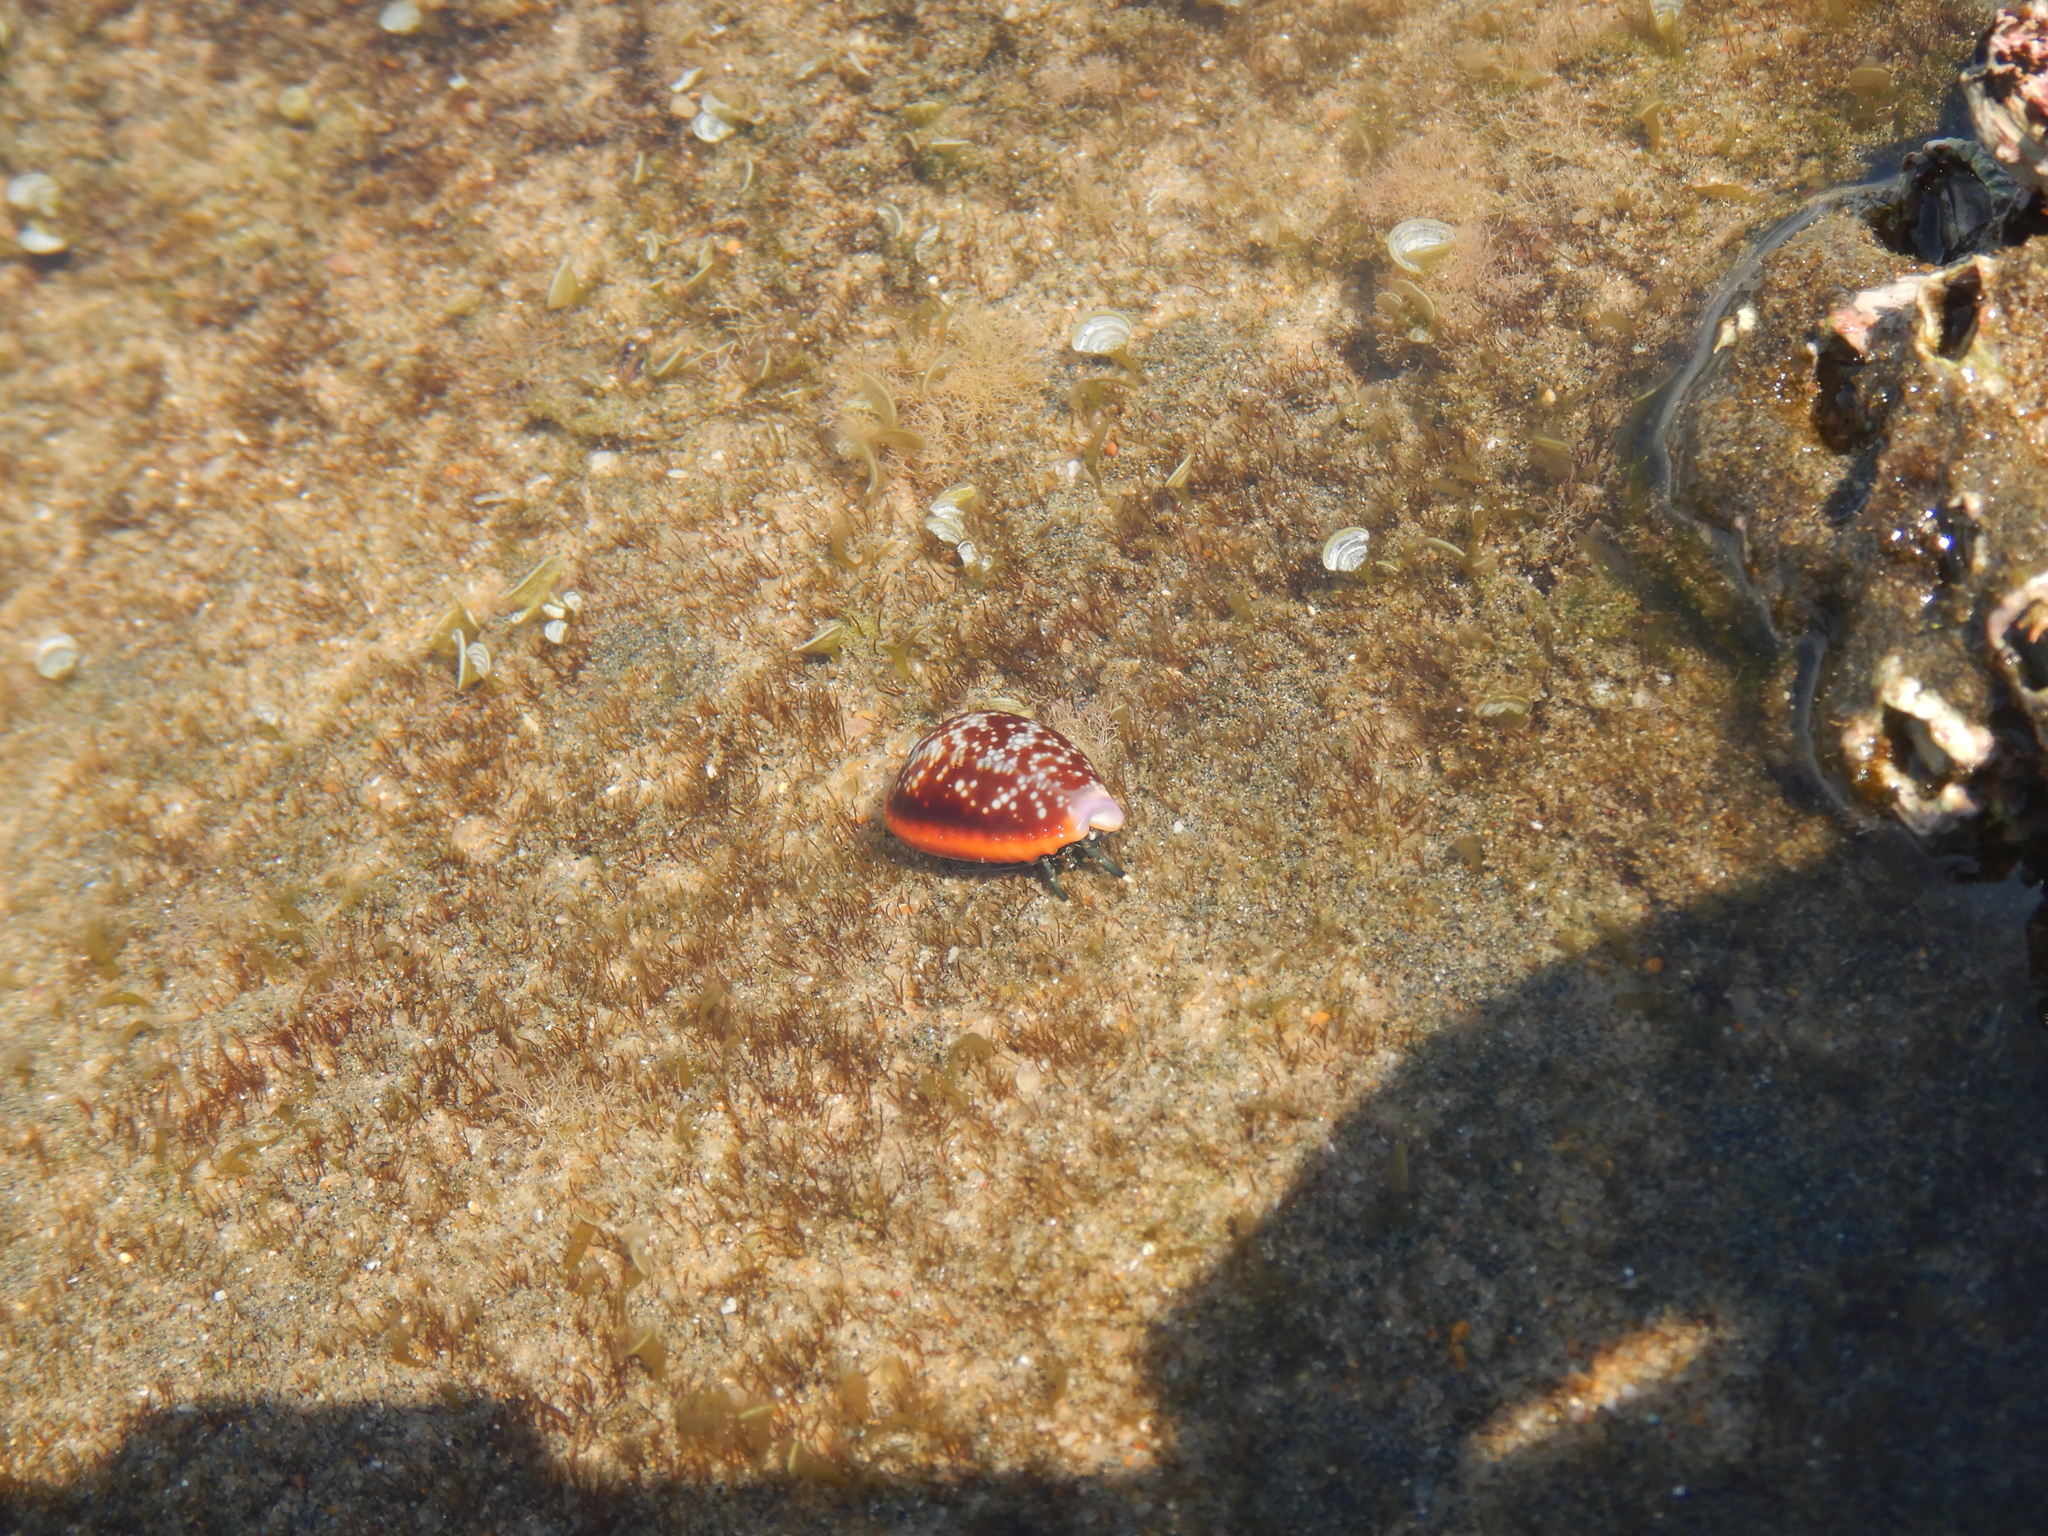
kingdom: Animalia
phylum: Mollusca
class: Gastropoda
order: Littorinimorpha
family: Cypraeidae
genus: Naria
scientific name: Naria helvola
